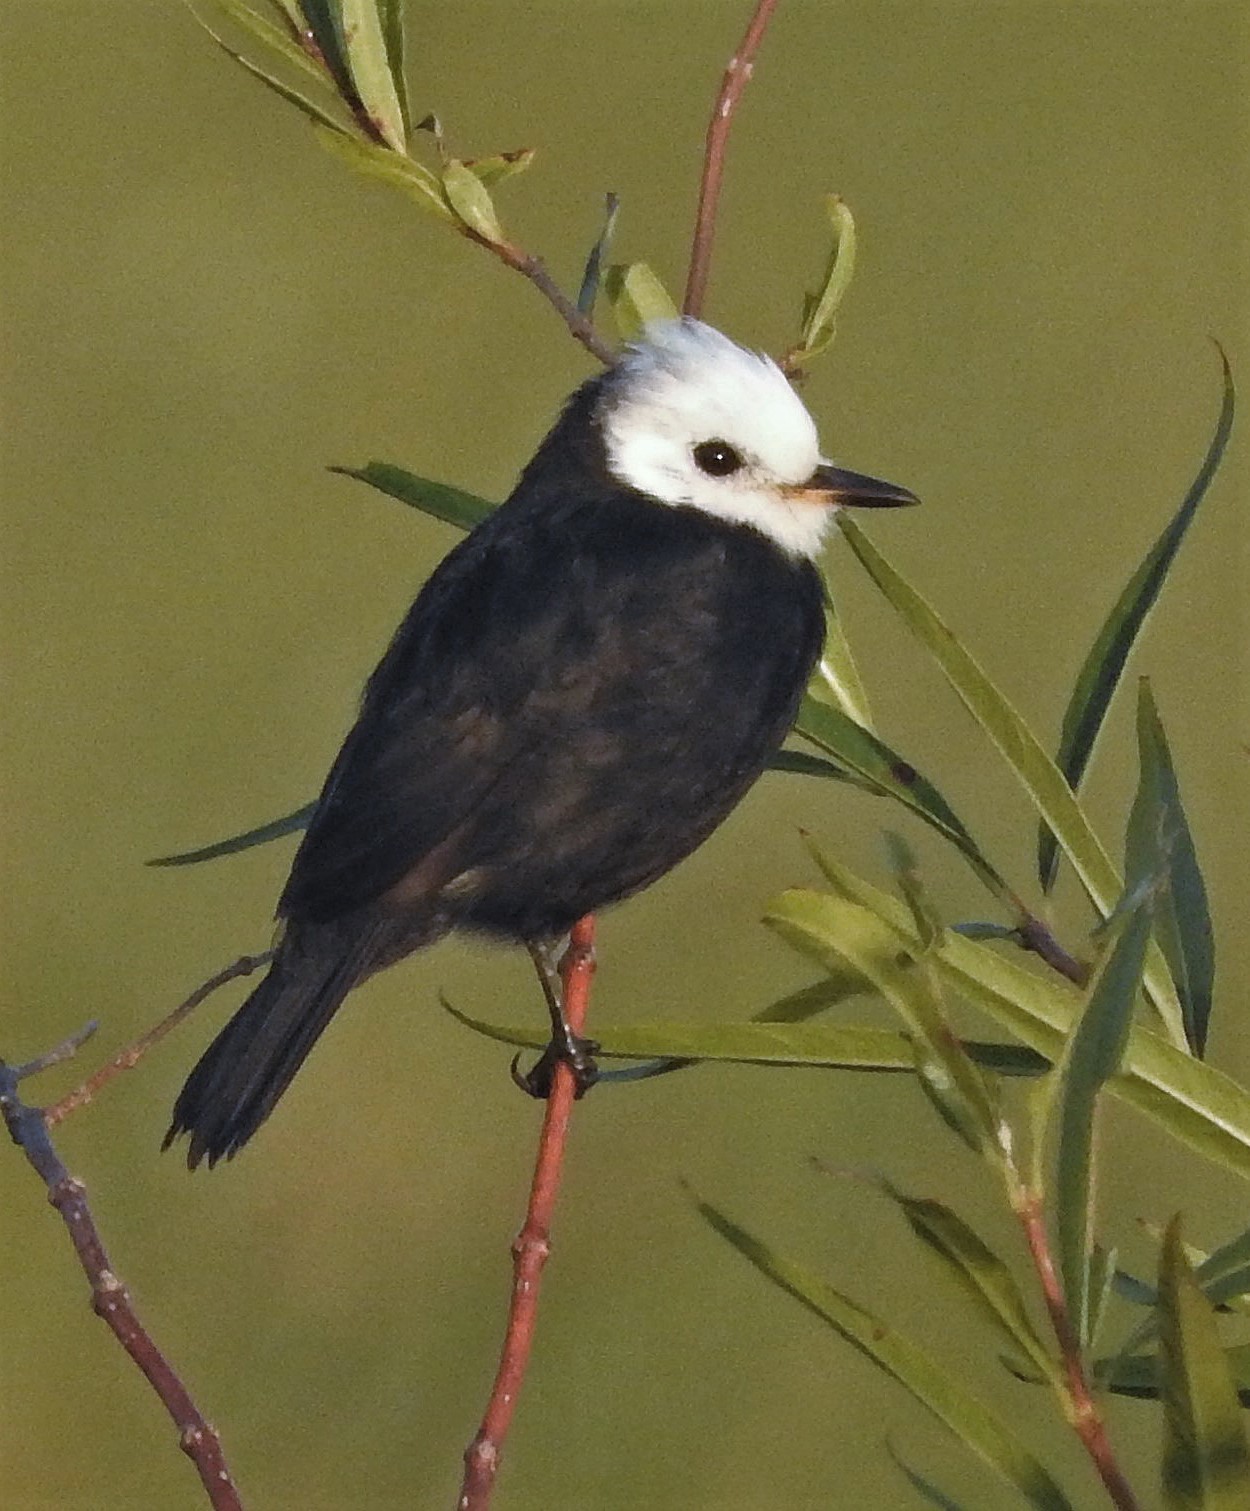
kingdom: Animalia
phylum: Chordata
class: Aves
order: Passeriformes
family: Tyrannidae
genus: Arundinicola
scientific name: Arundinicola leucocephala
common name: White-headed marsh tyrant
